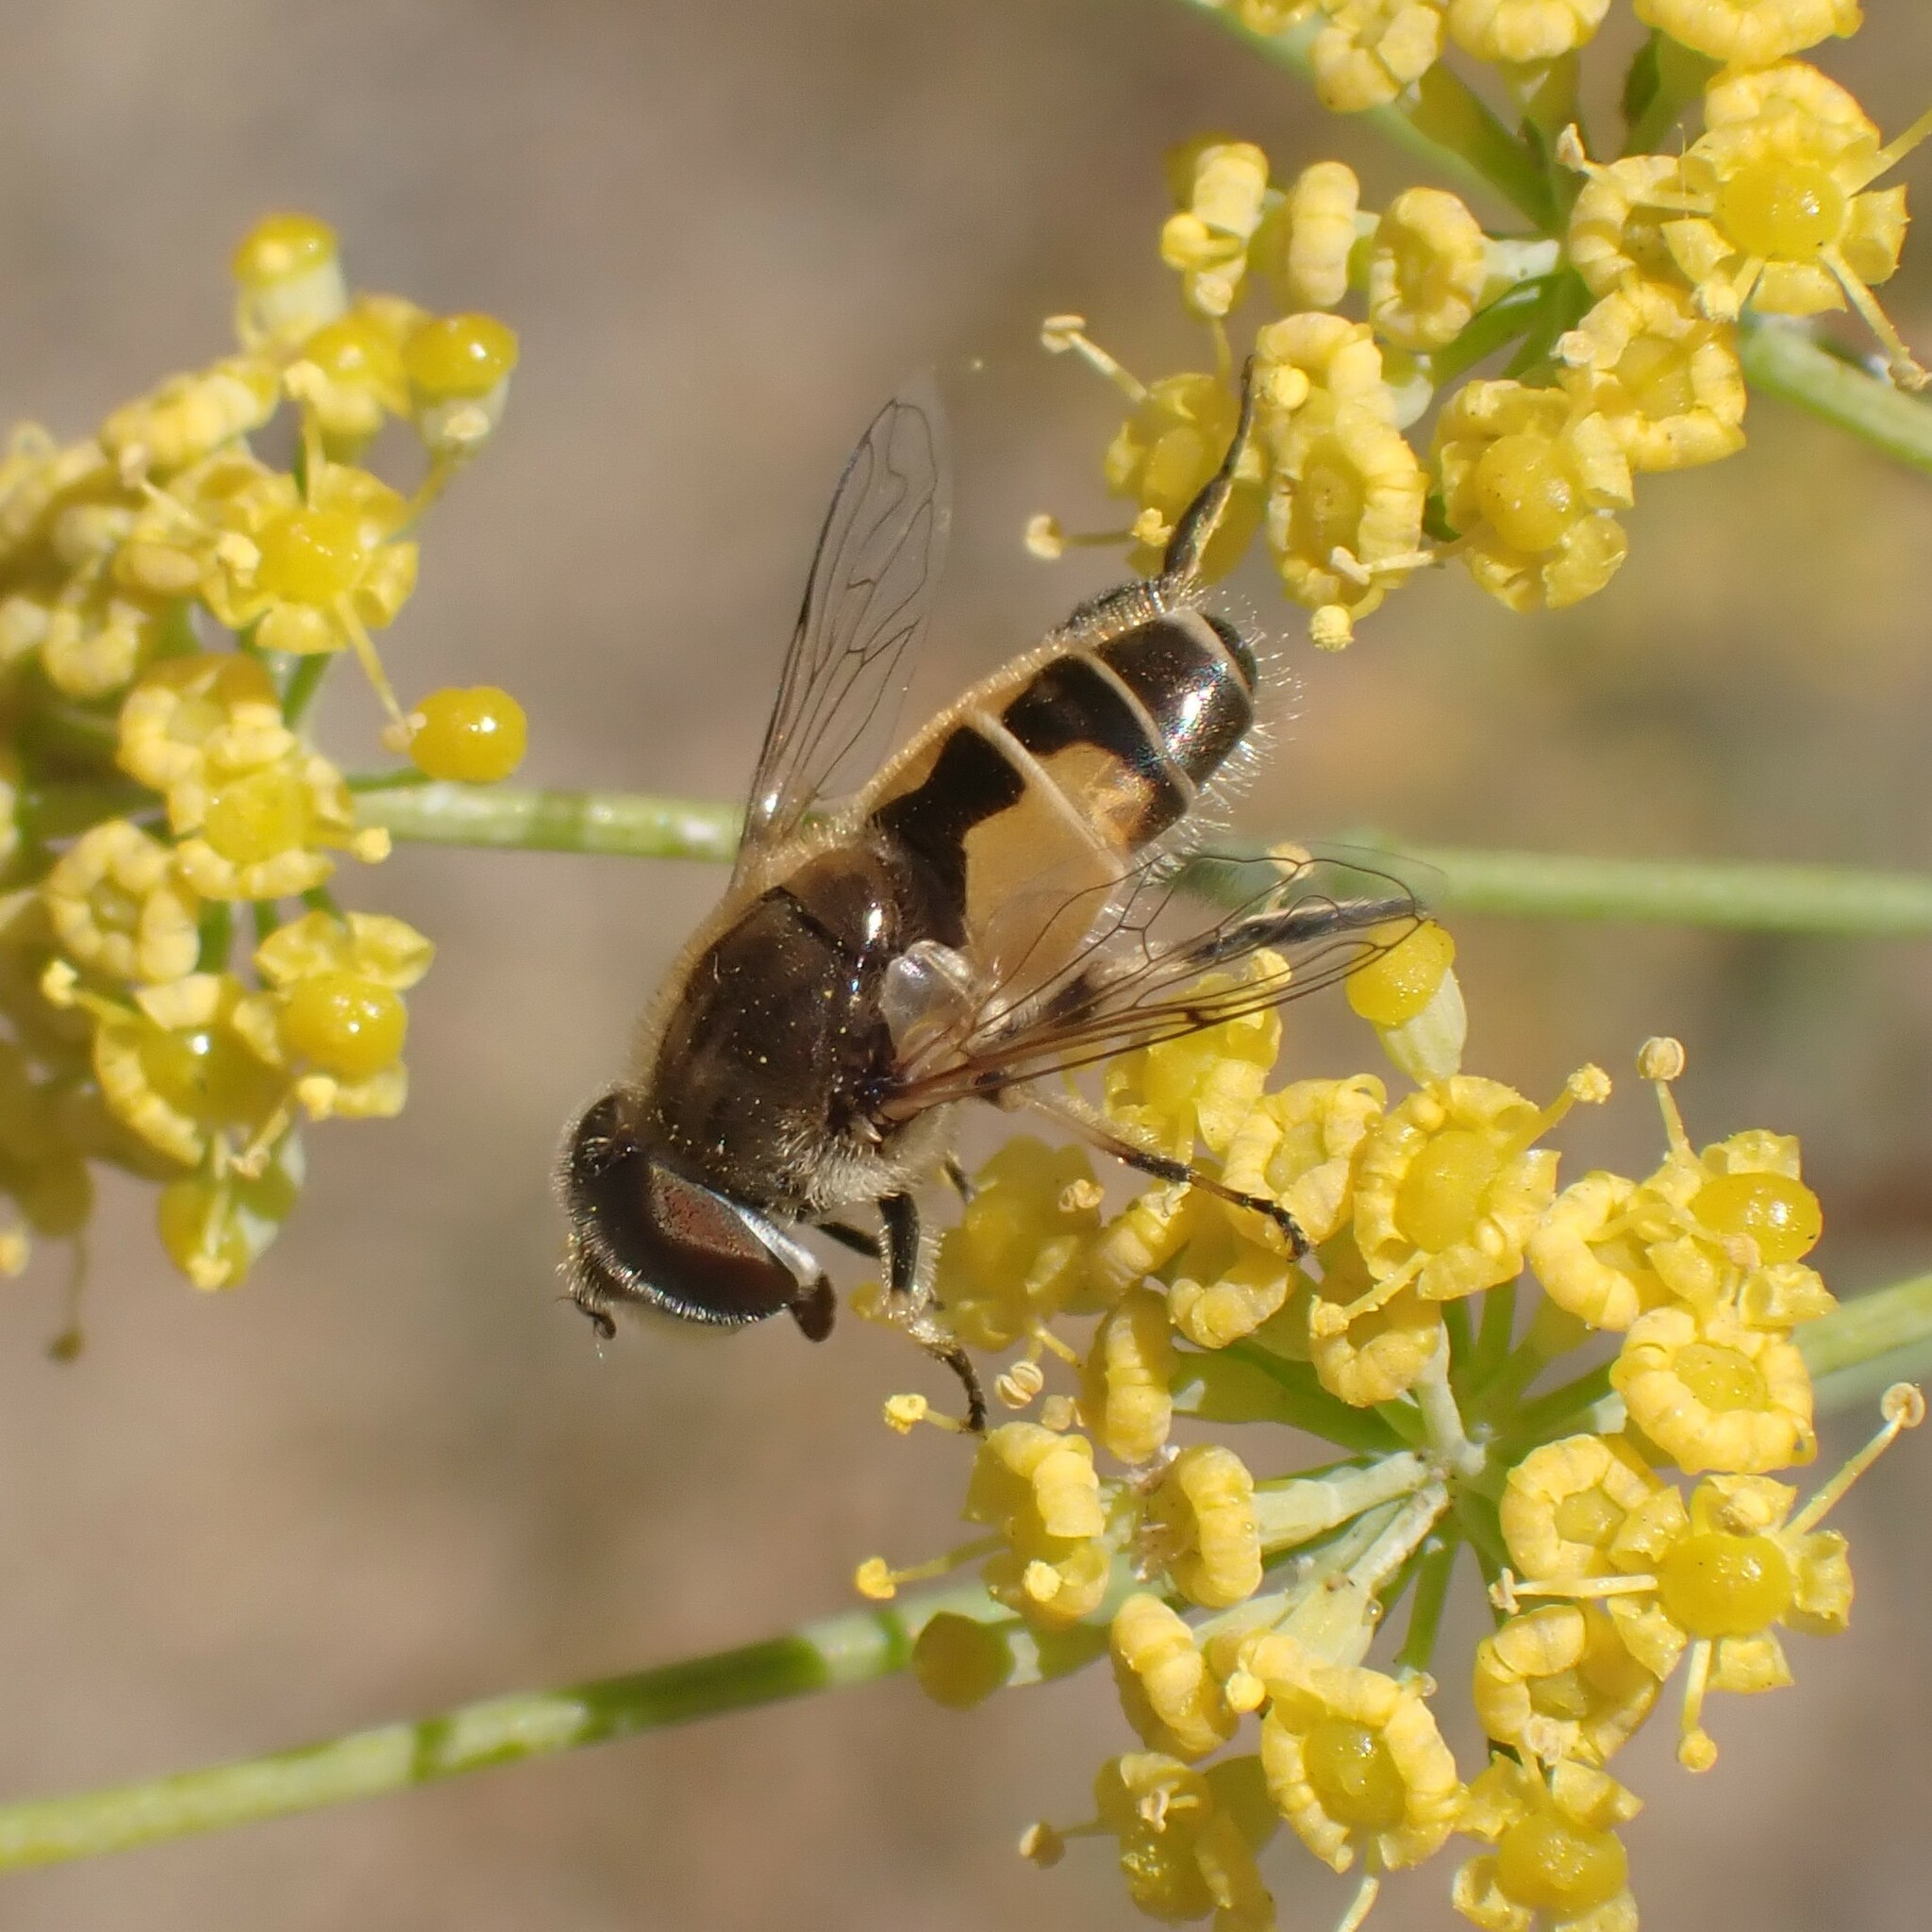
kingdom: Animalia
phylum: Arthropoda
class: Insecta
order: Diptera
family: Syrphidae
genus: Eristalis
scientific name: Eristalis arbustorum
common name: Hover fly
